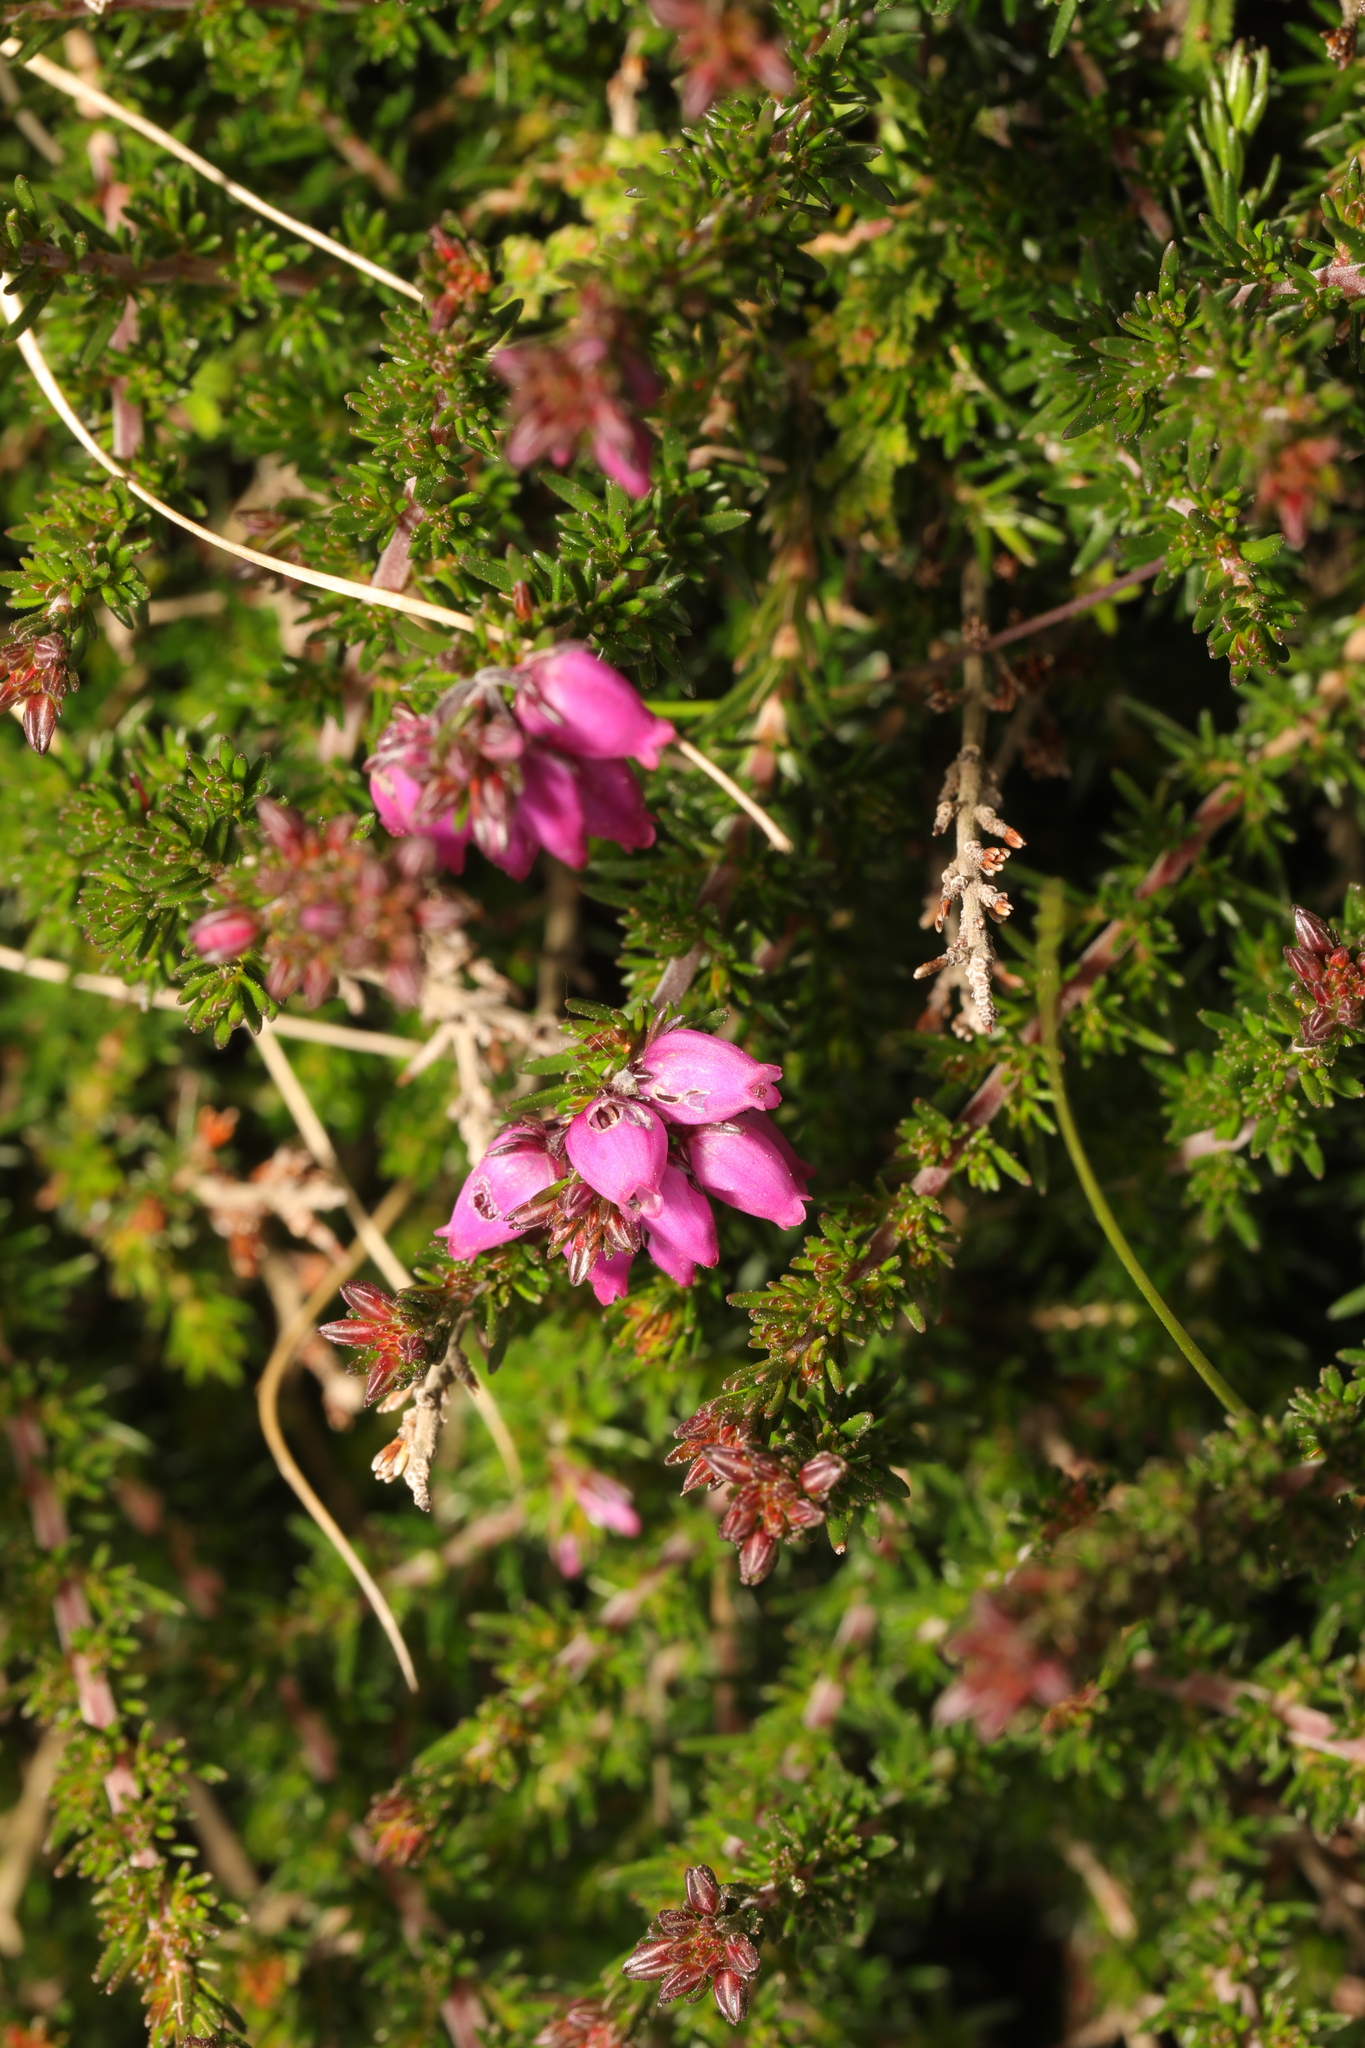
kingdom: Plantae
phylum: Tracheophyta
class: Magnoliopsida
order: Ericales
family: Ericaceae
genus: Erica
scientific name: Erica cinerea
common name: Bell heather
